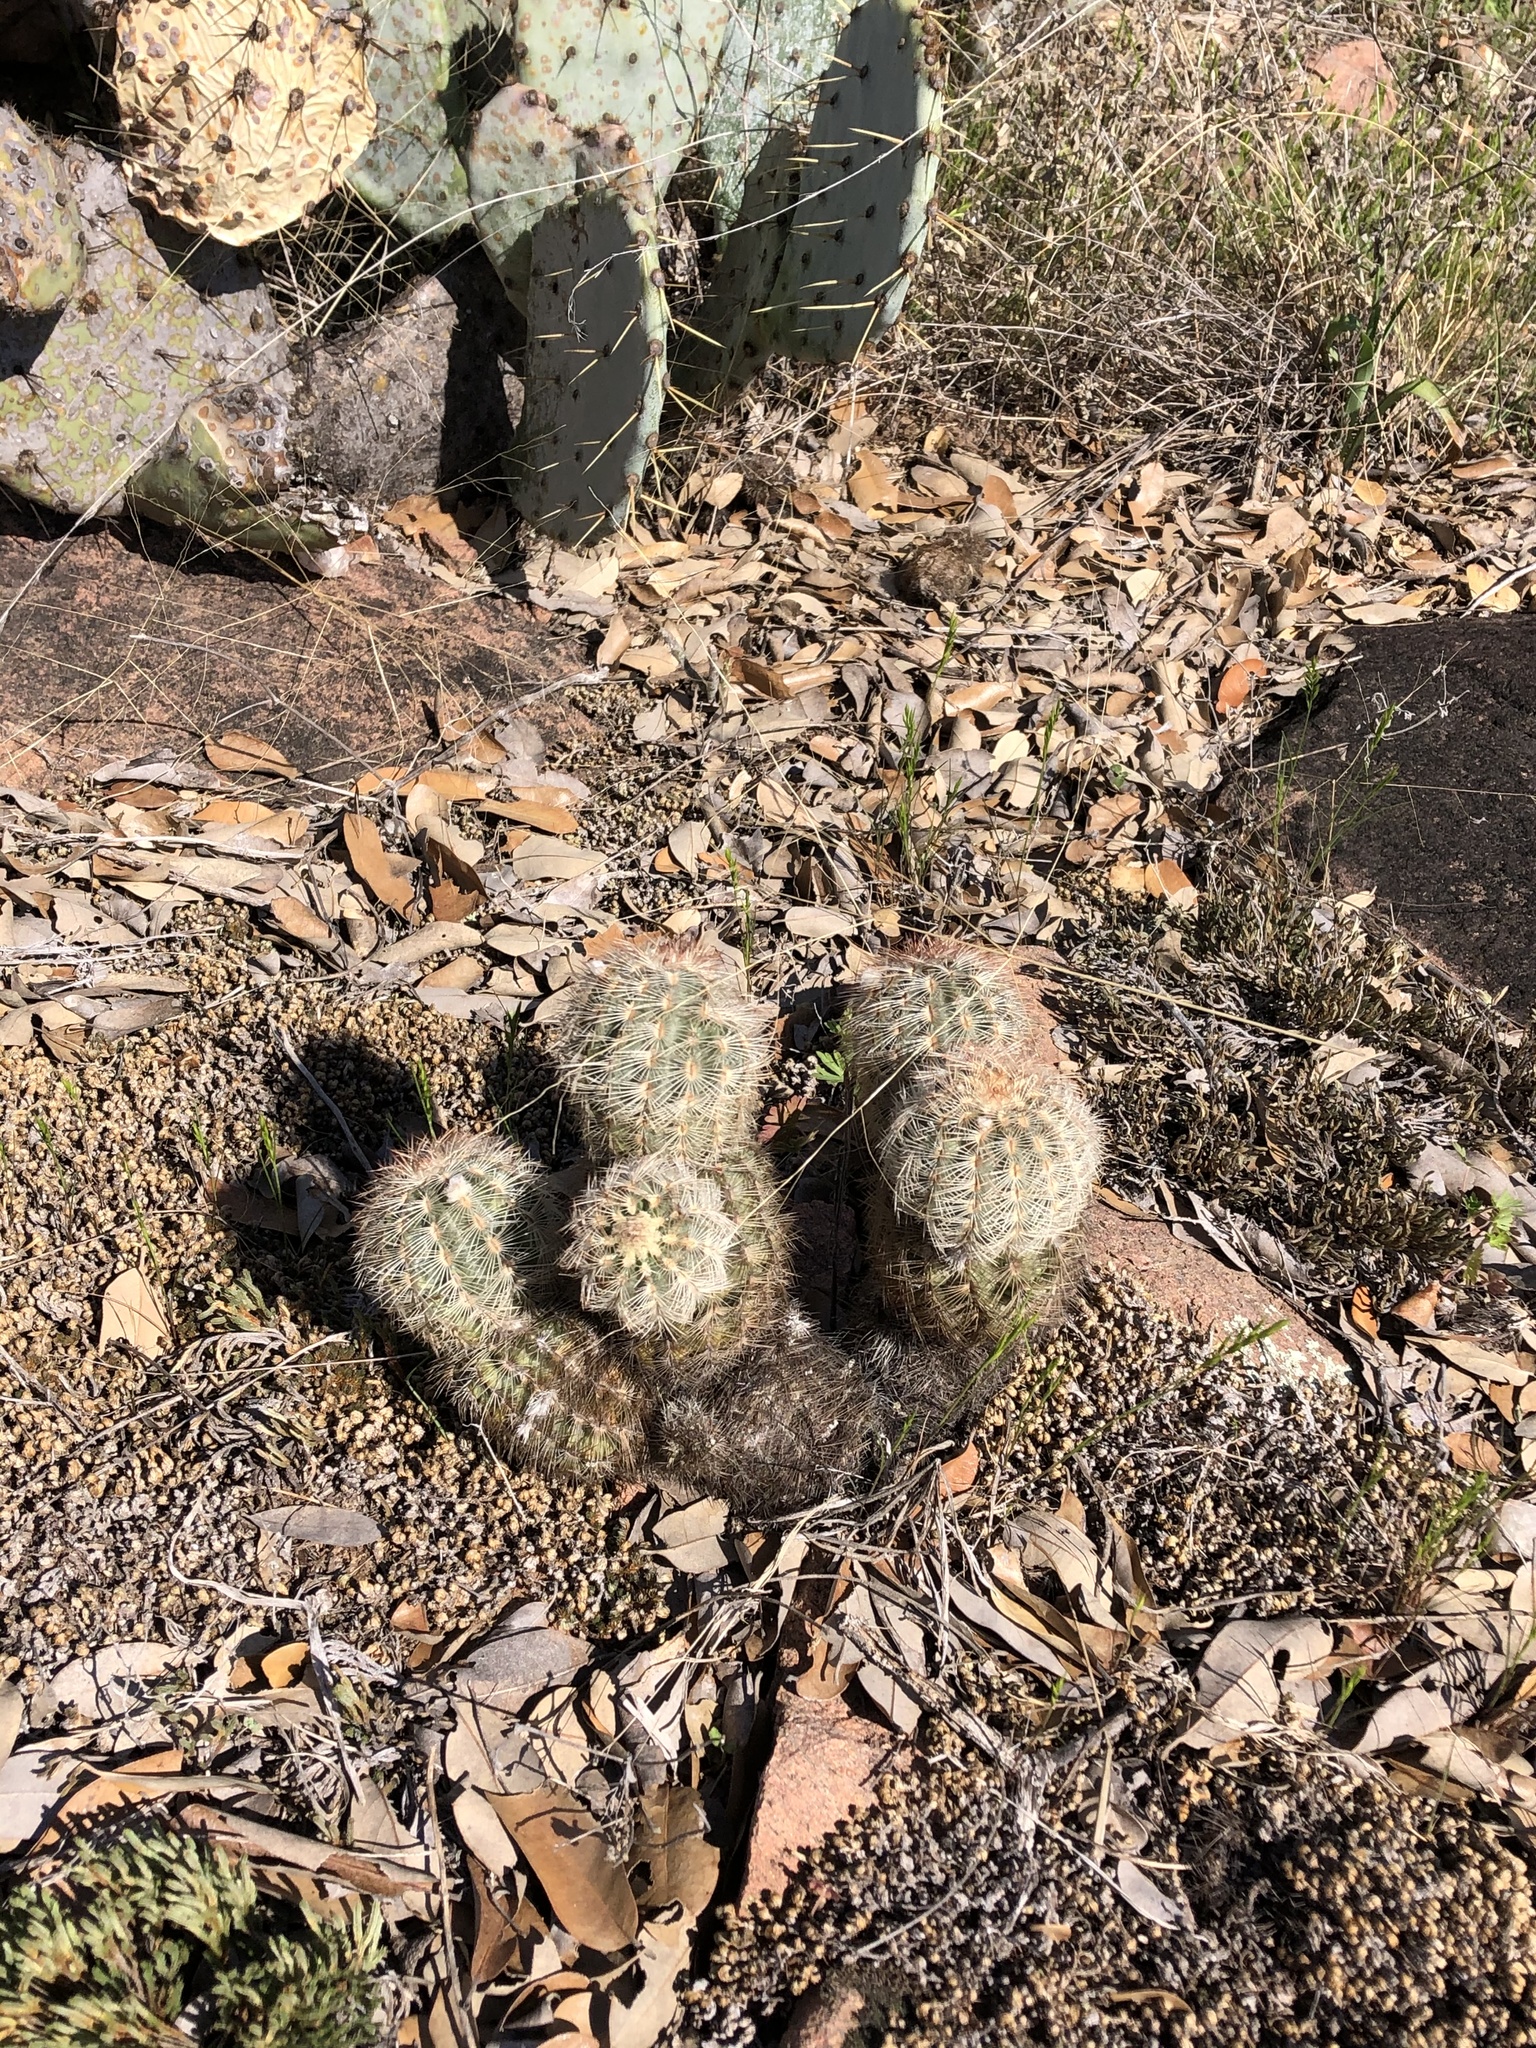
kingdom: Plantae
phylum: Tracheophyta
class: Magnoliopsida
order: Caryophyllales
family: Cactaceae
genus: Echinocereus
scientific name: Echinocereus reichenbachii
